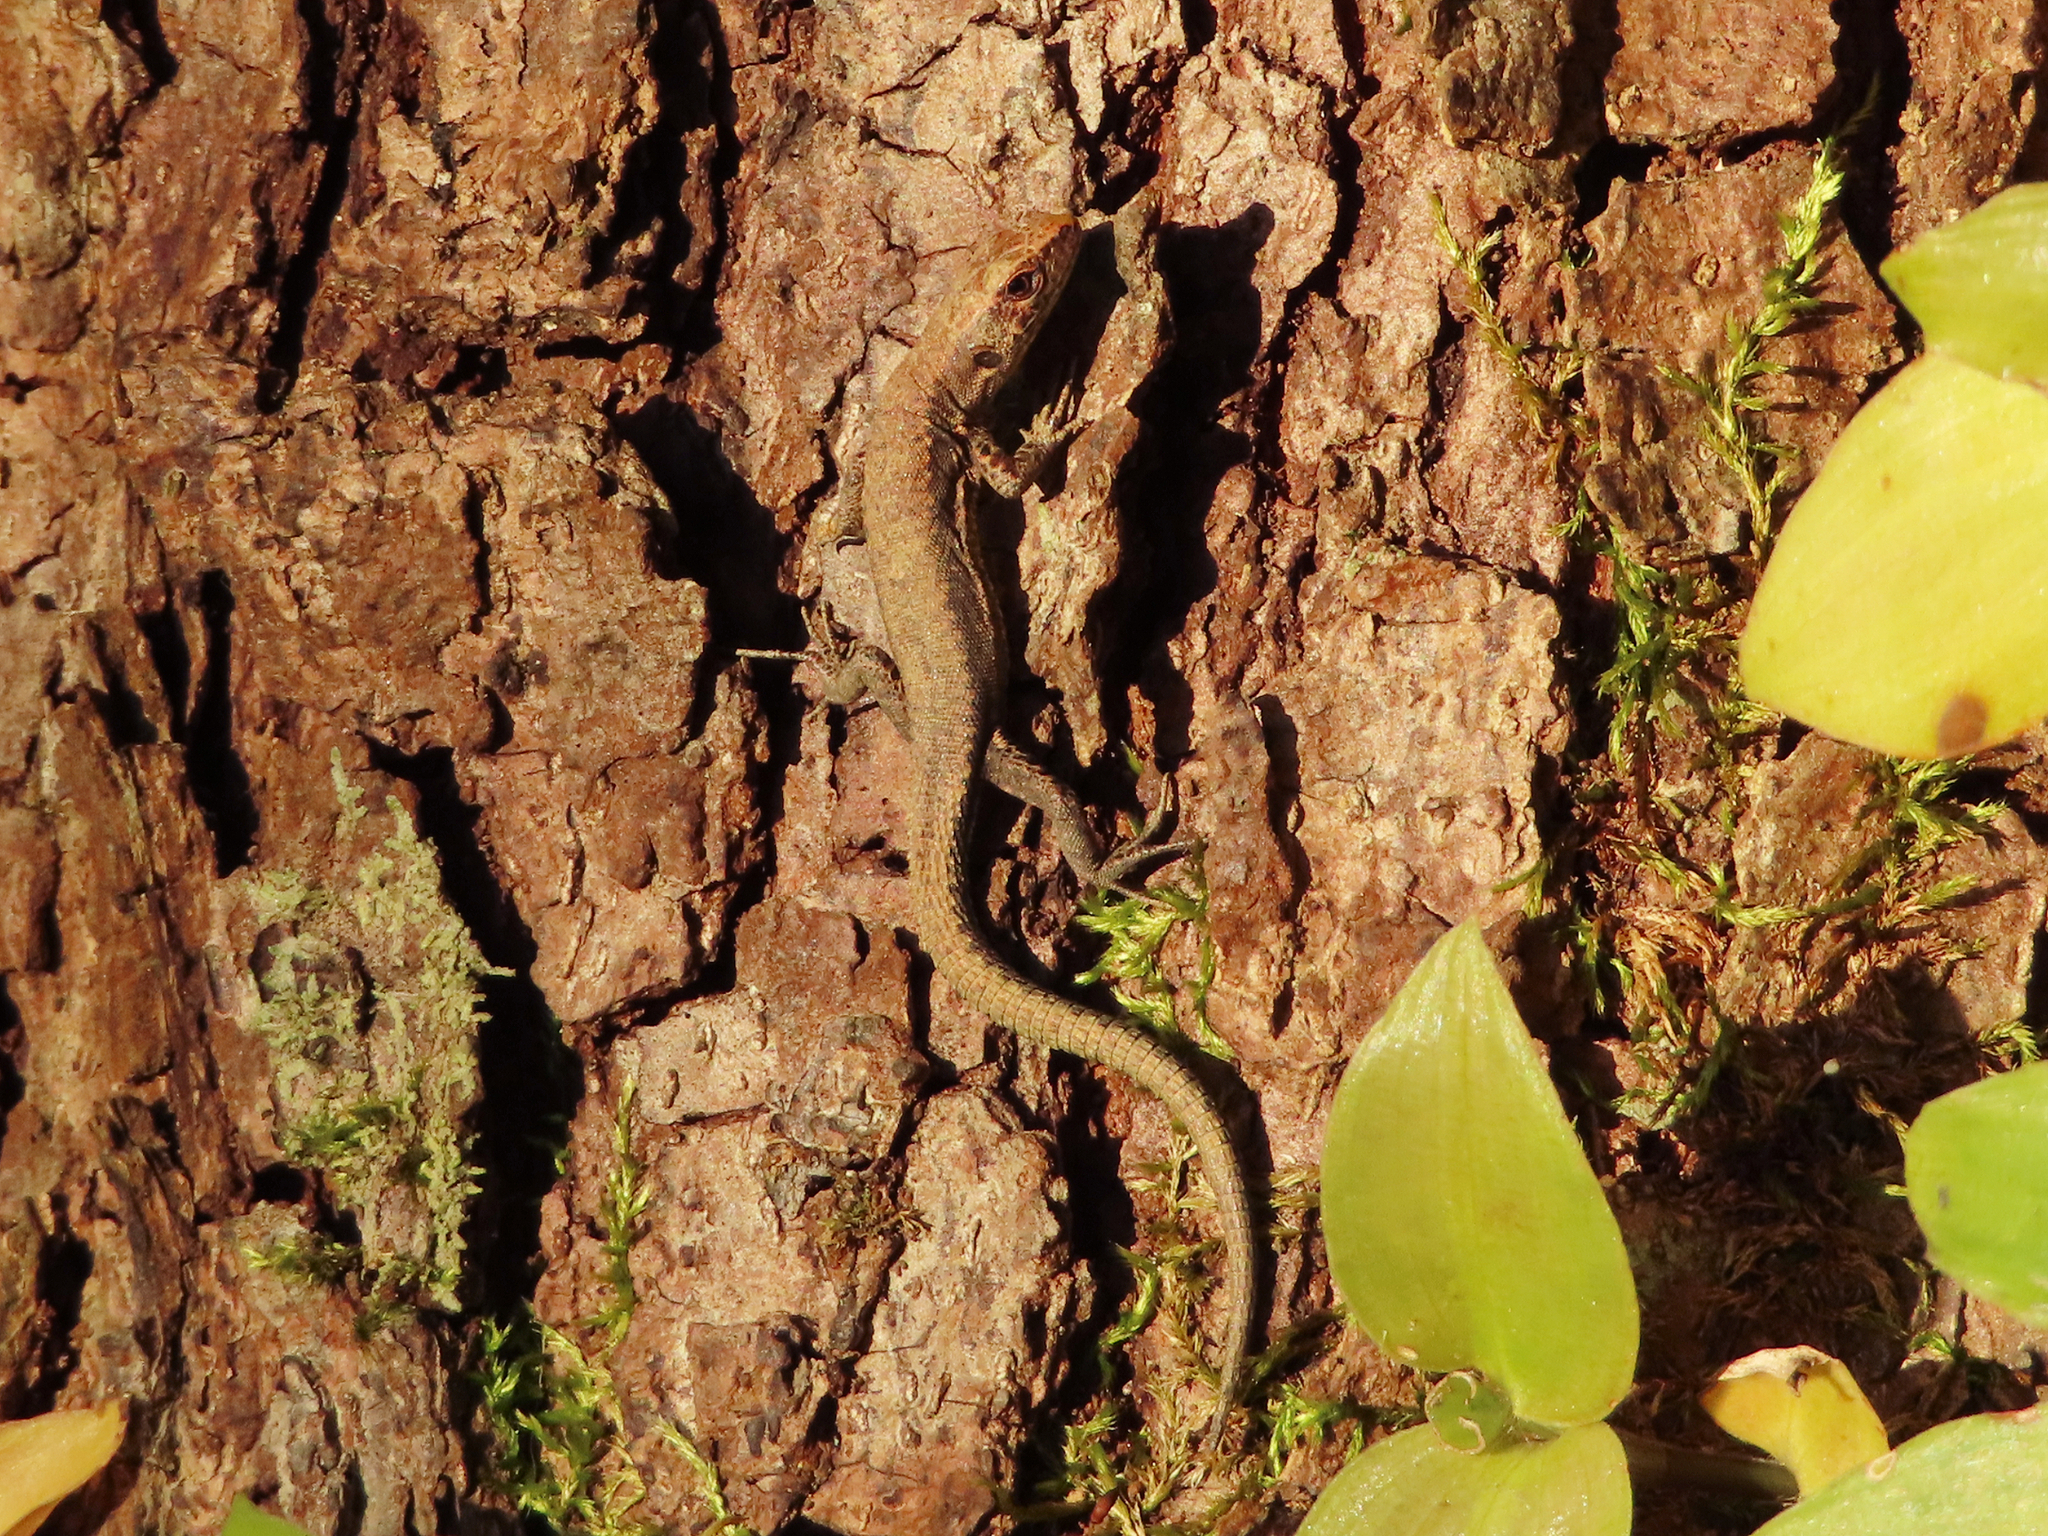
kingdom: Animalia
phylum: Chordata
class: Squamata
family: Lacertidae
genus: Darevskia
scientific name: Darevskia derjugini
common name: Derjugin's lizard
